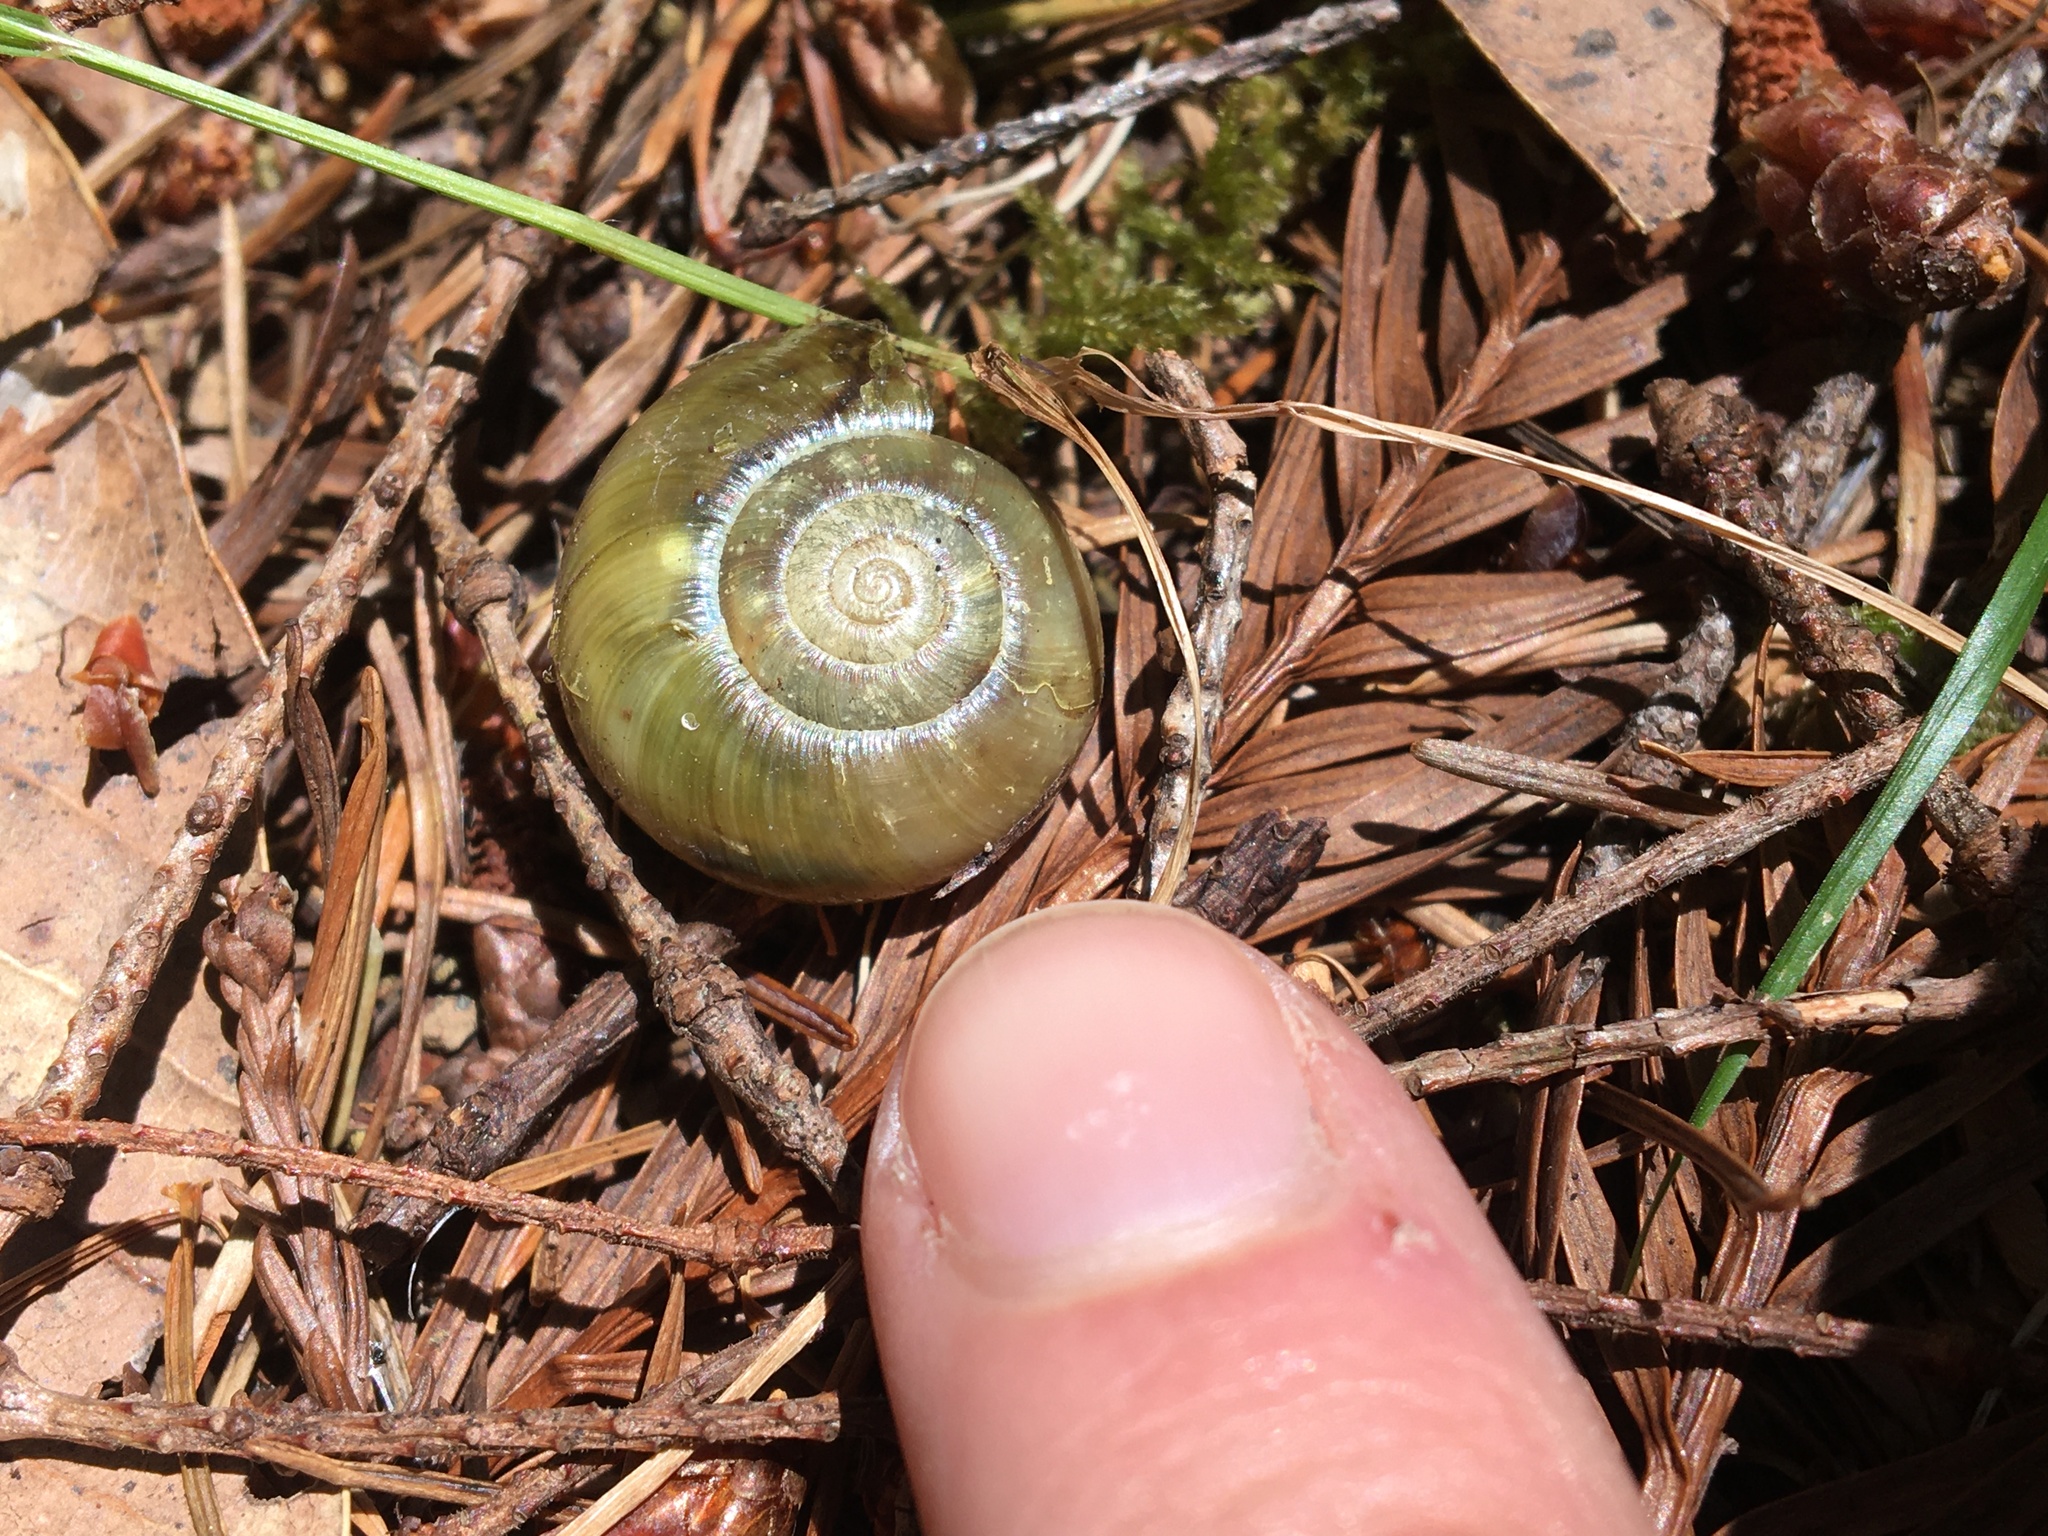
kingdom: Animalia
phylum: Mollusca
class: Gastropoda
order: Stylommatophora
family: Haplotrematidae
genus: Haplotrema
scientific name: Haplotrema vancouverense
